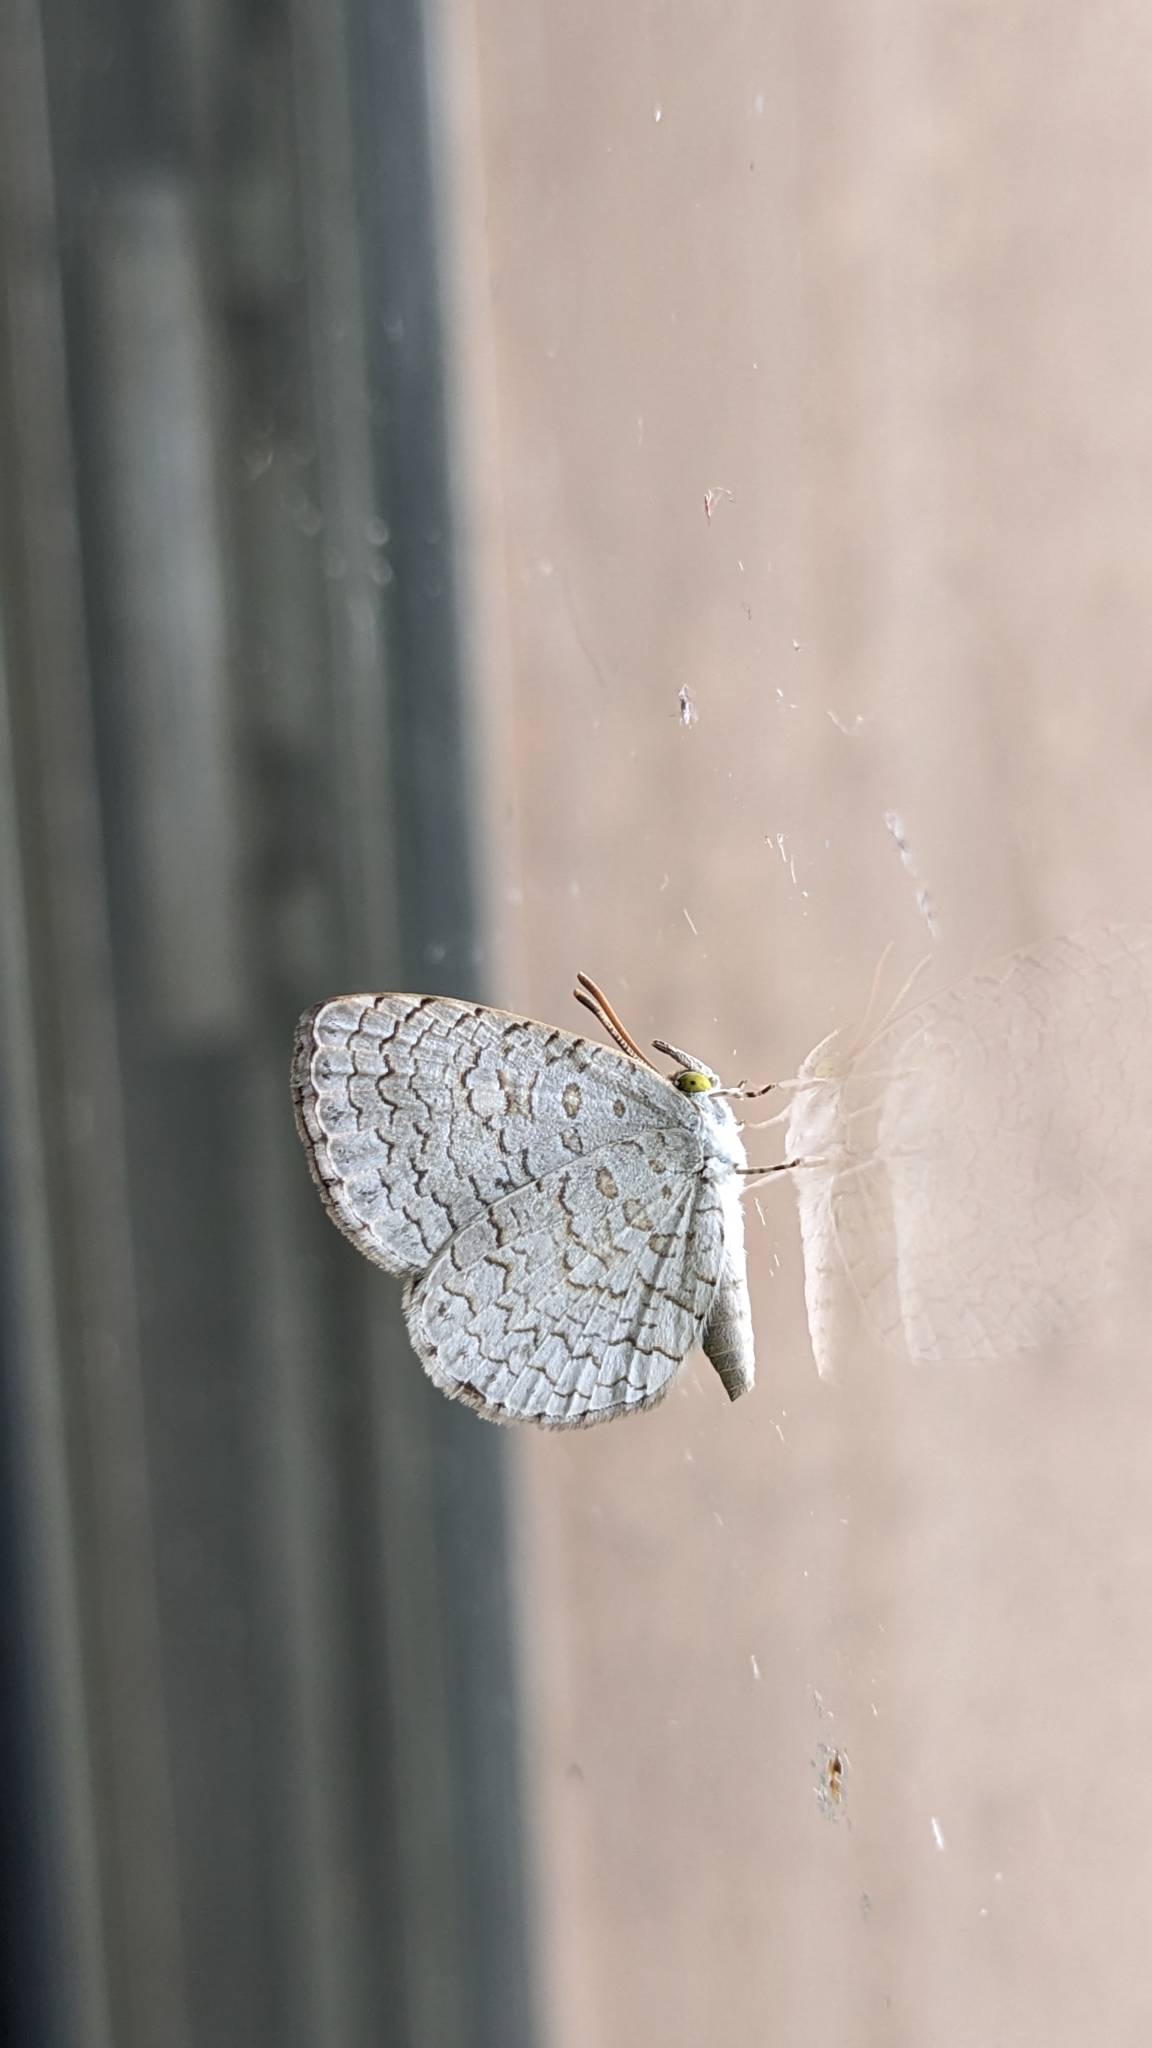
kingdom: Animalia
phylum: Arthropoda
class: Insecta
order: Lepidoptera
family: Lycaenidae
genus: Spalgis
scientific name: Spalgis epius
